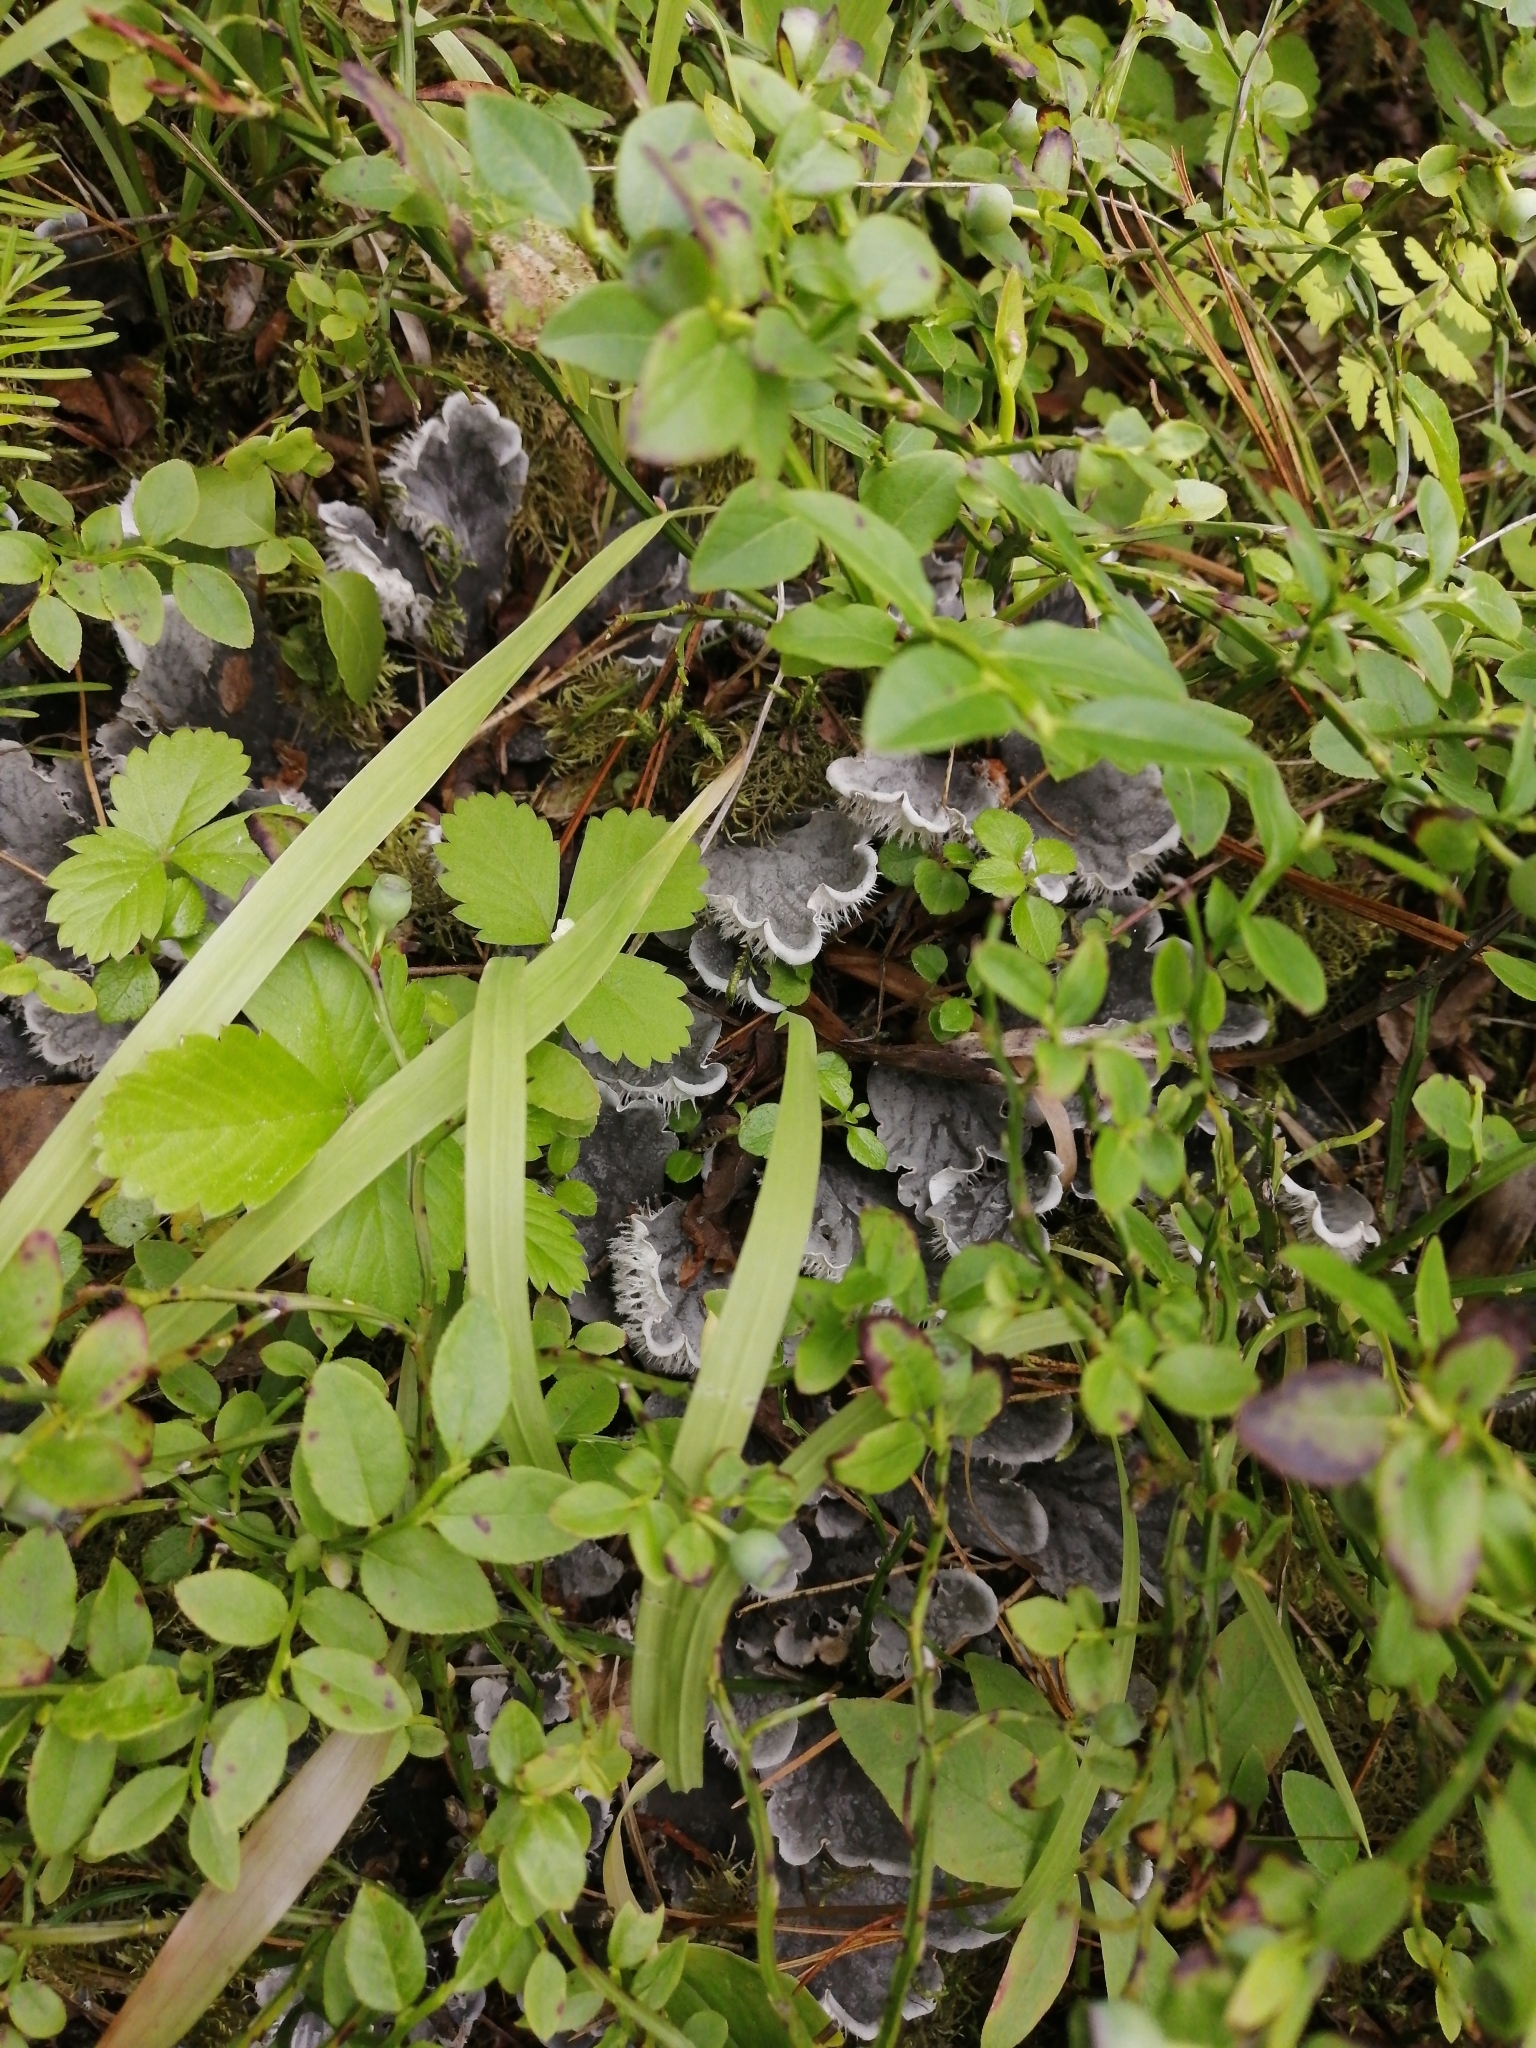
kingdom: Fungi
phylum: Ascomycota
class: Lecanoromycetes
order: Peltigerales
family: Peltigeraceae
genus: Peltigera
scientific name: Peltigera canina
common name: Dog pelt lichen
